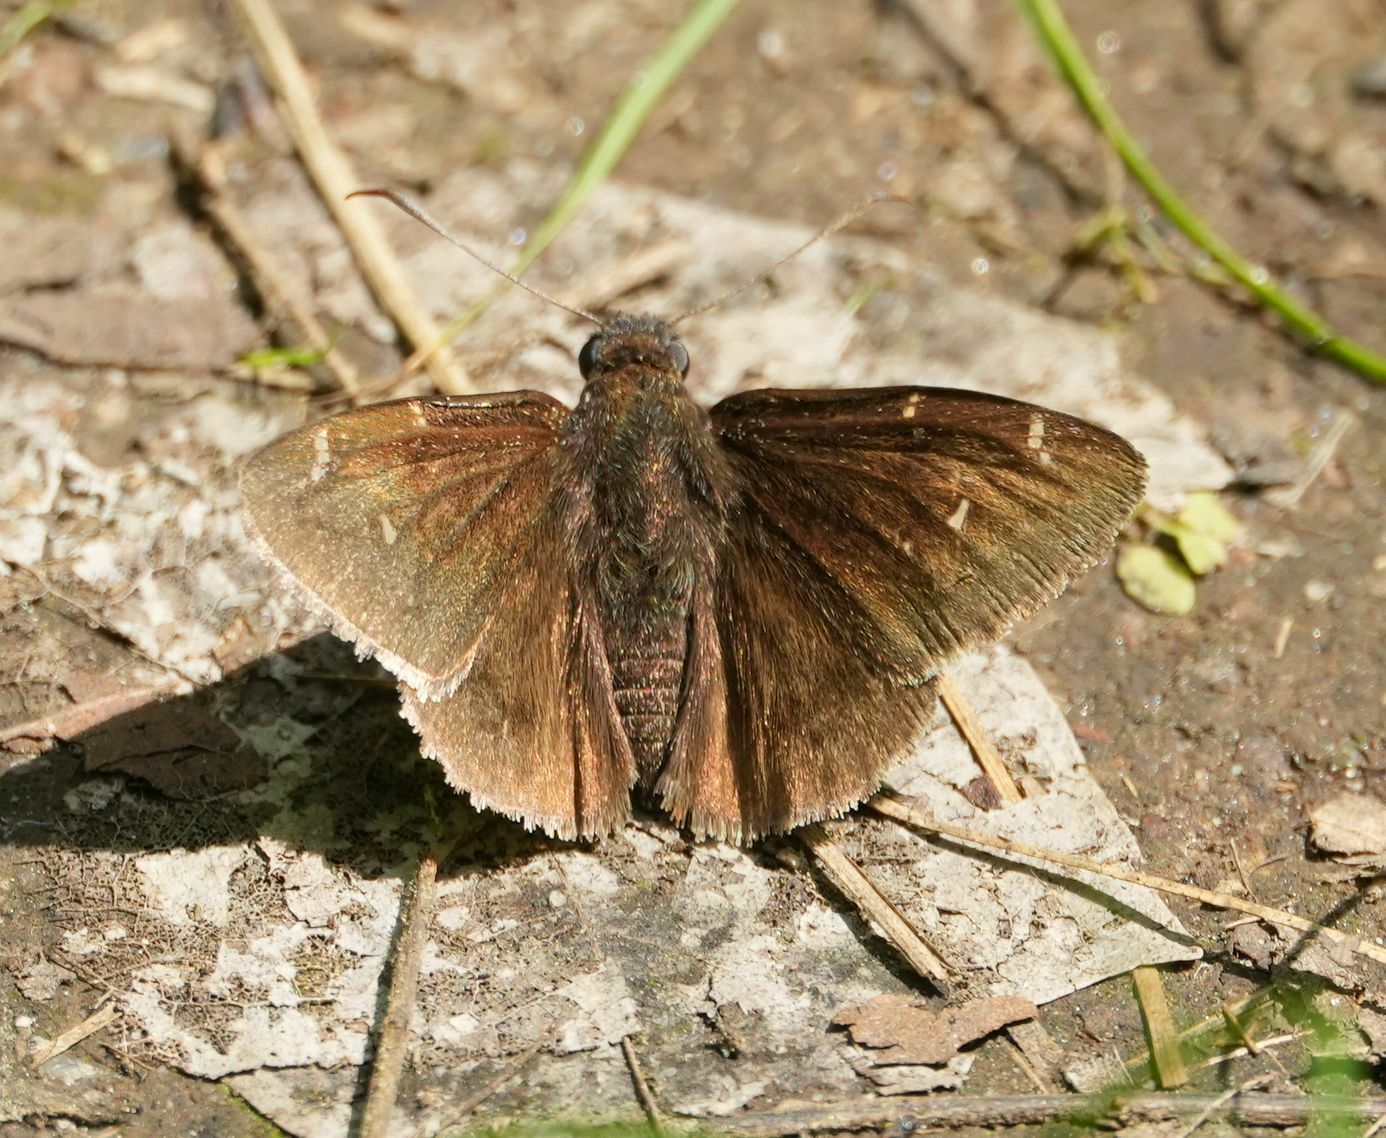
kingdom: Animalia
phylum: Arthropoda
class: Insecta
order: Lepidoptera
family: Hesperiidae
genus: Thorybes
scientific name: Thorybes pylades
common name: Northern cloudywing
